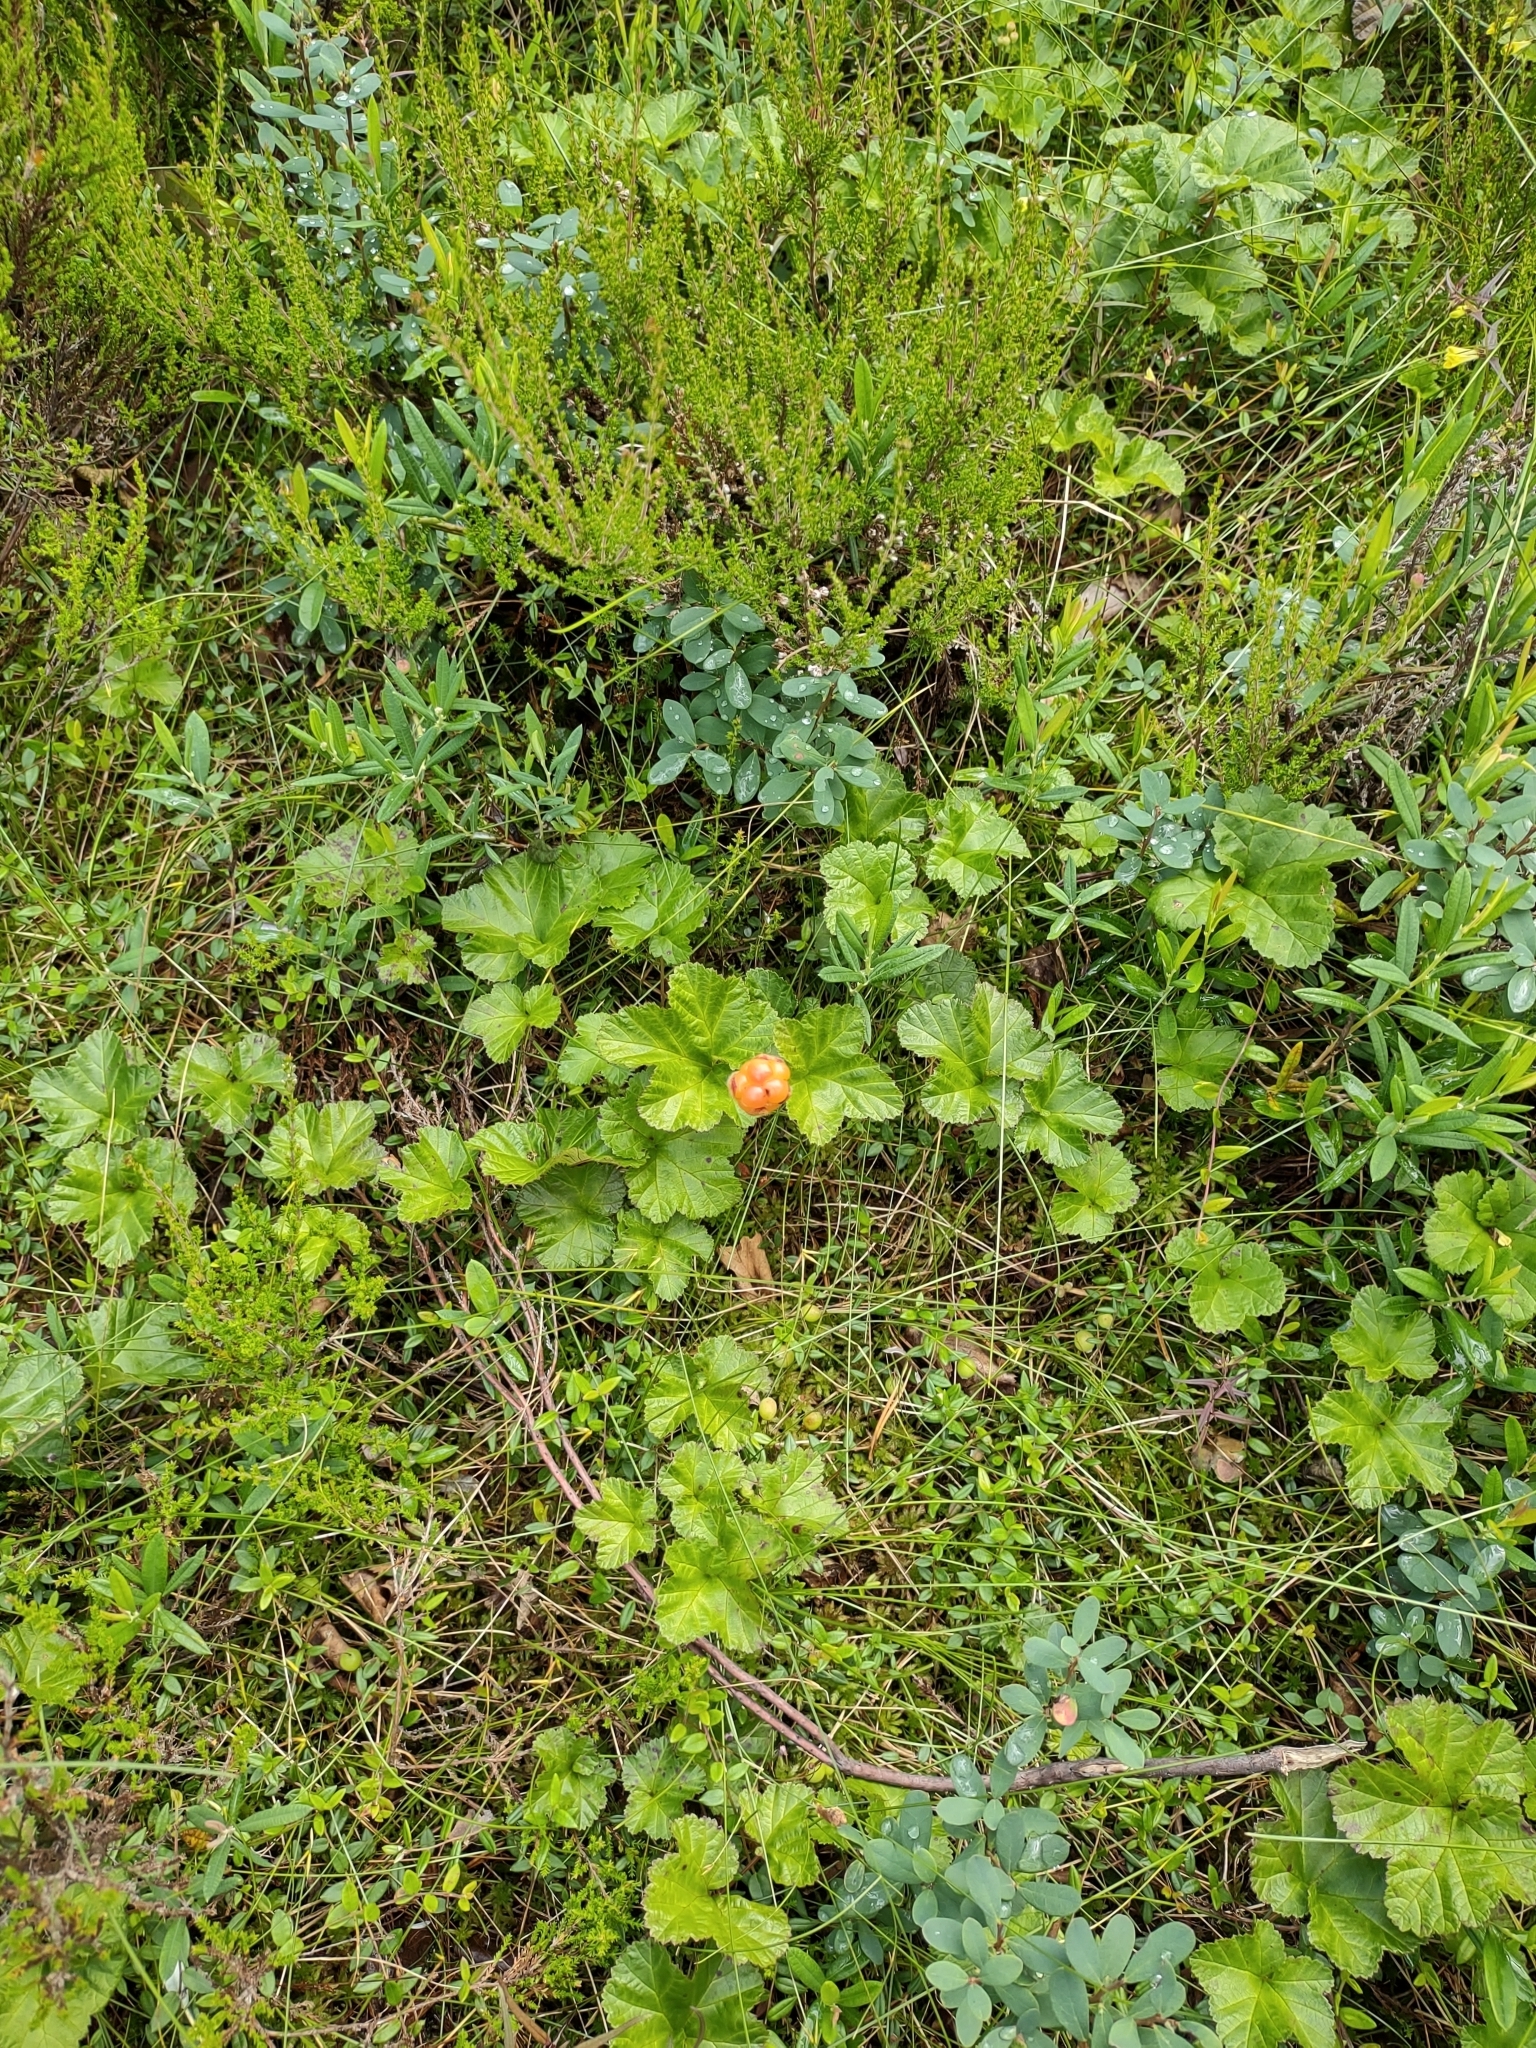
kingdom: Plantae
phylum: Tracheophyta
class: Magnoliopsida
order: Rosales
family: Rosaceae
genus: Rubus
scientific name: Rubus chamaemorus
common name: Cloudberry
